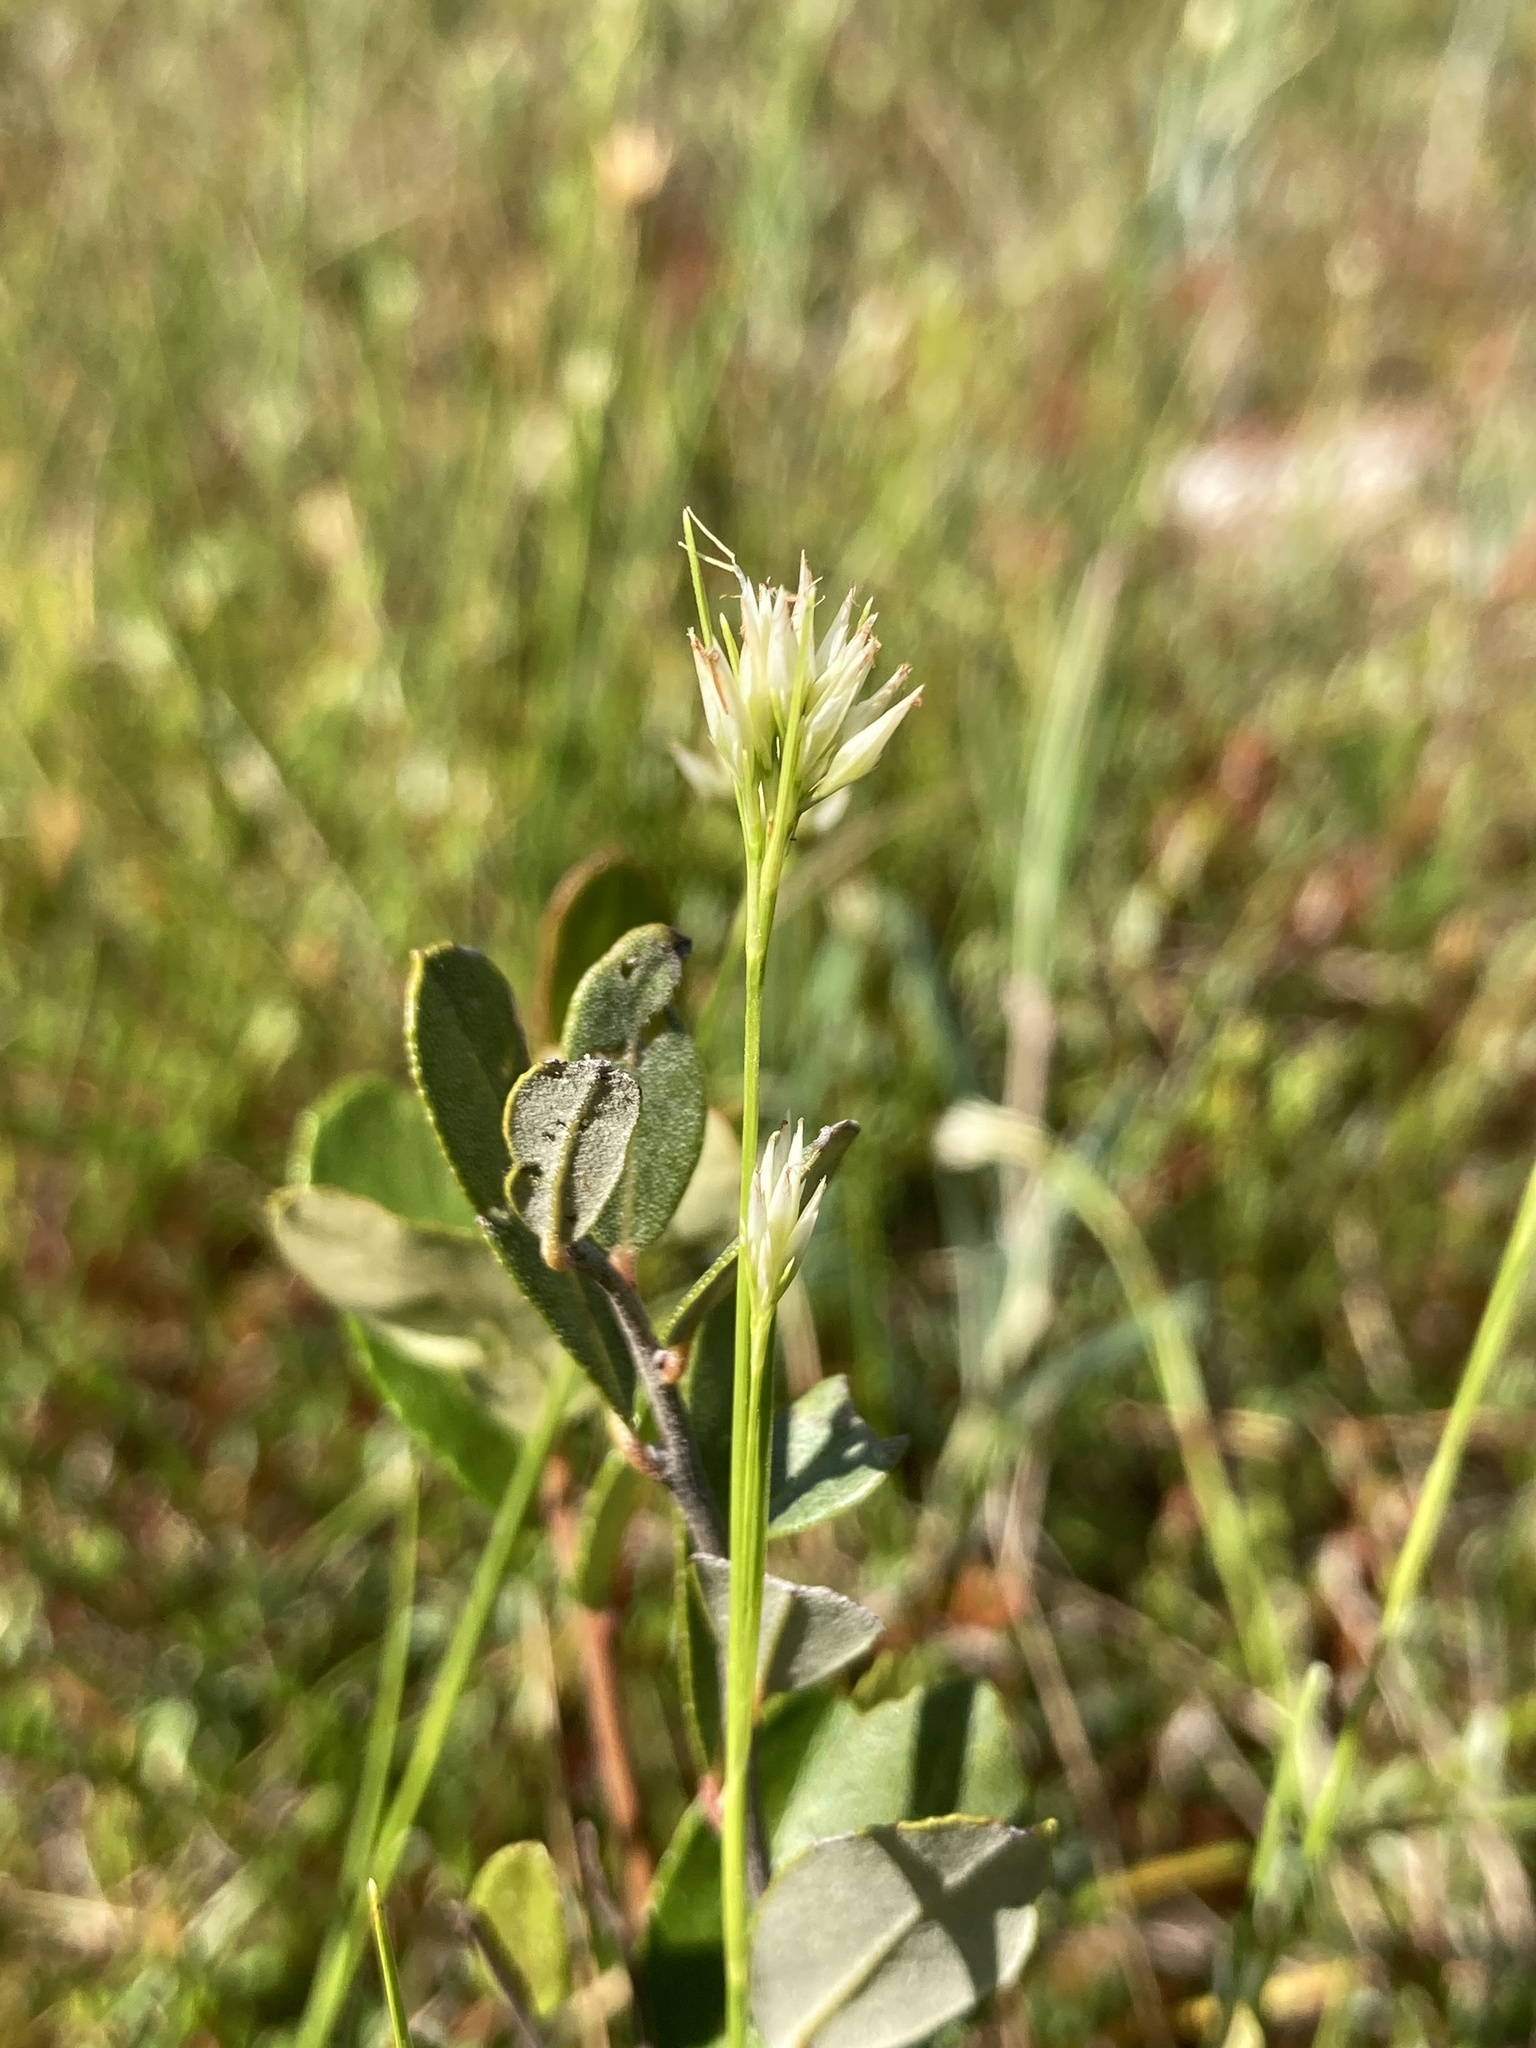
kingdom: Plantae
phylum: Tracheophyta
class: Liliopsida
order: Poales
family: Cyperaceae
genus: Rhynchospora
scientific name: Rhynchospora alba
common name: White beak-sedge
